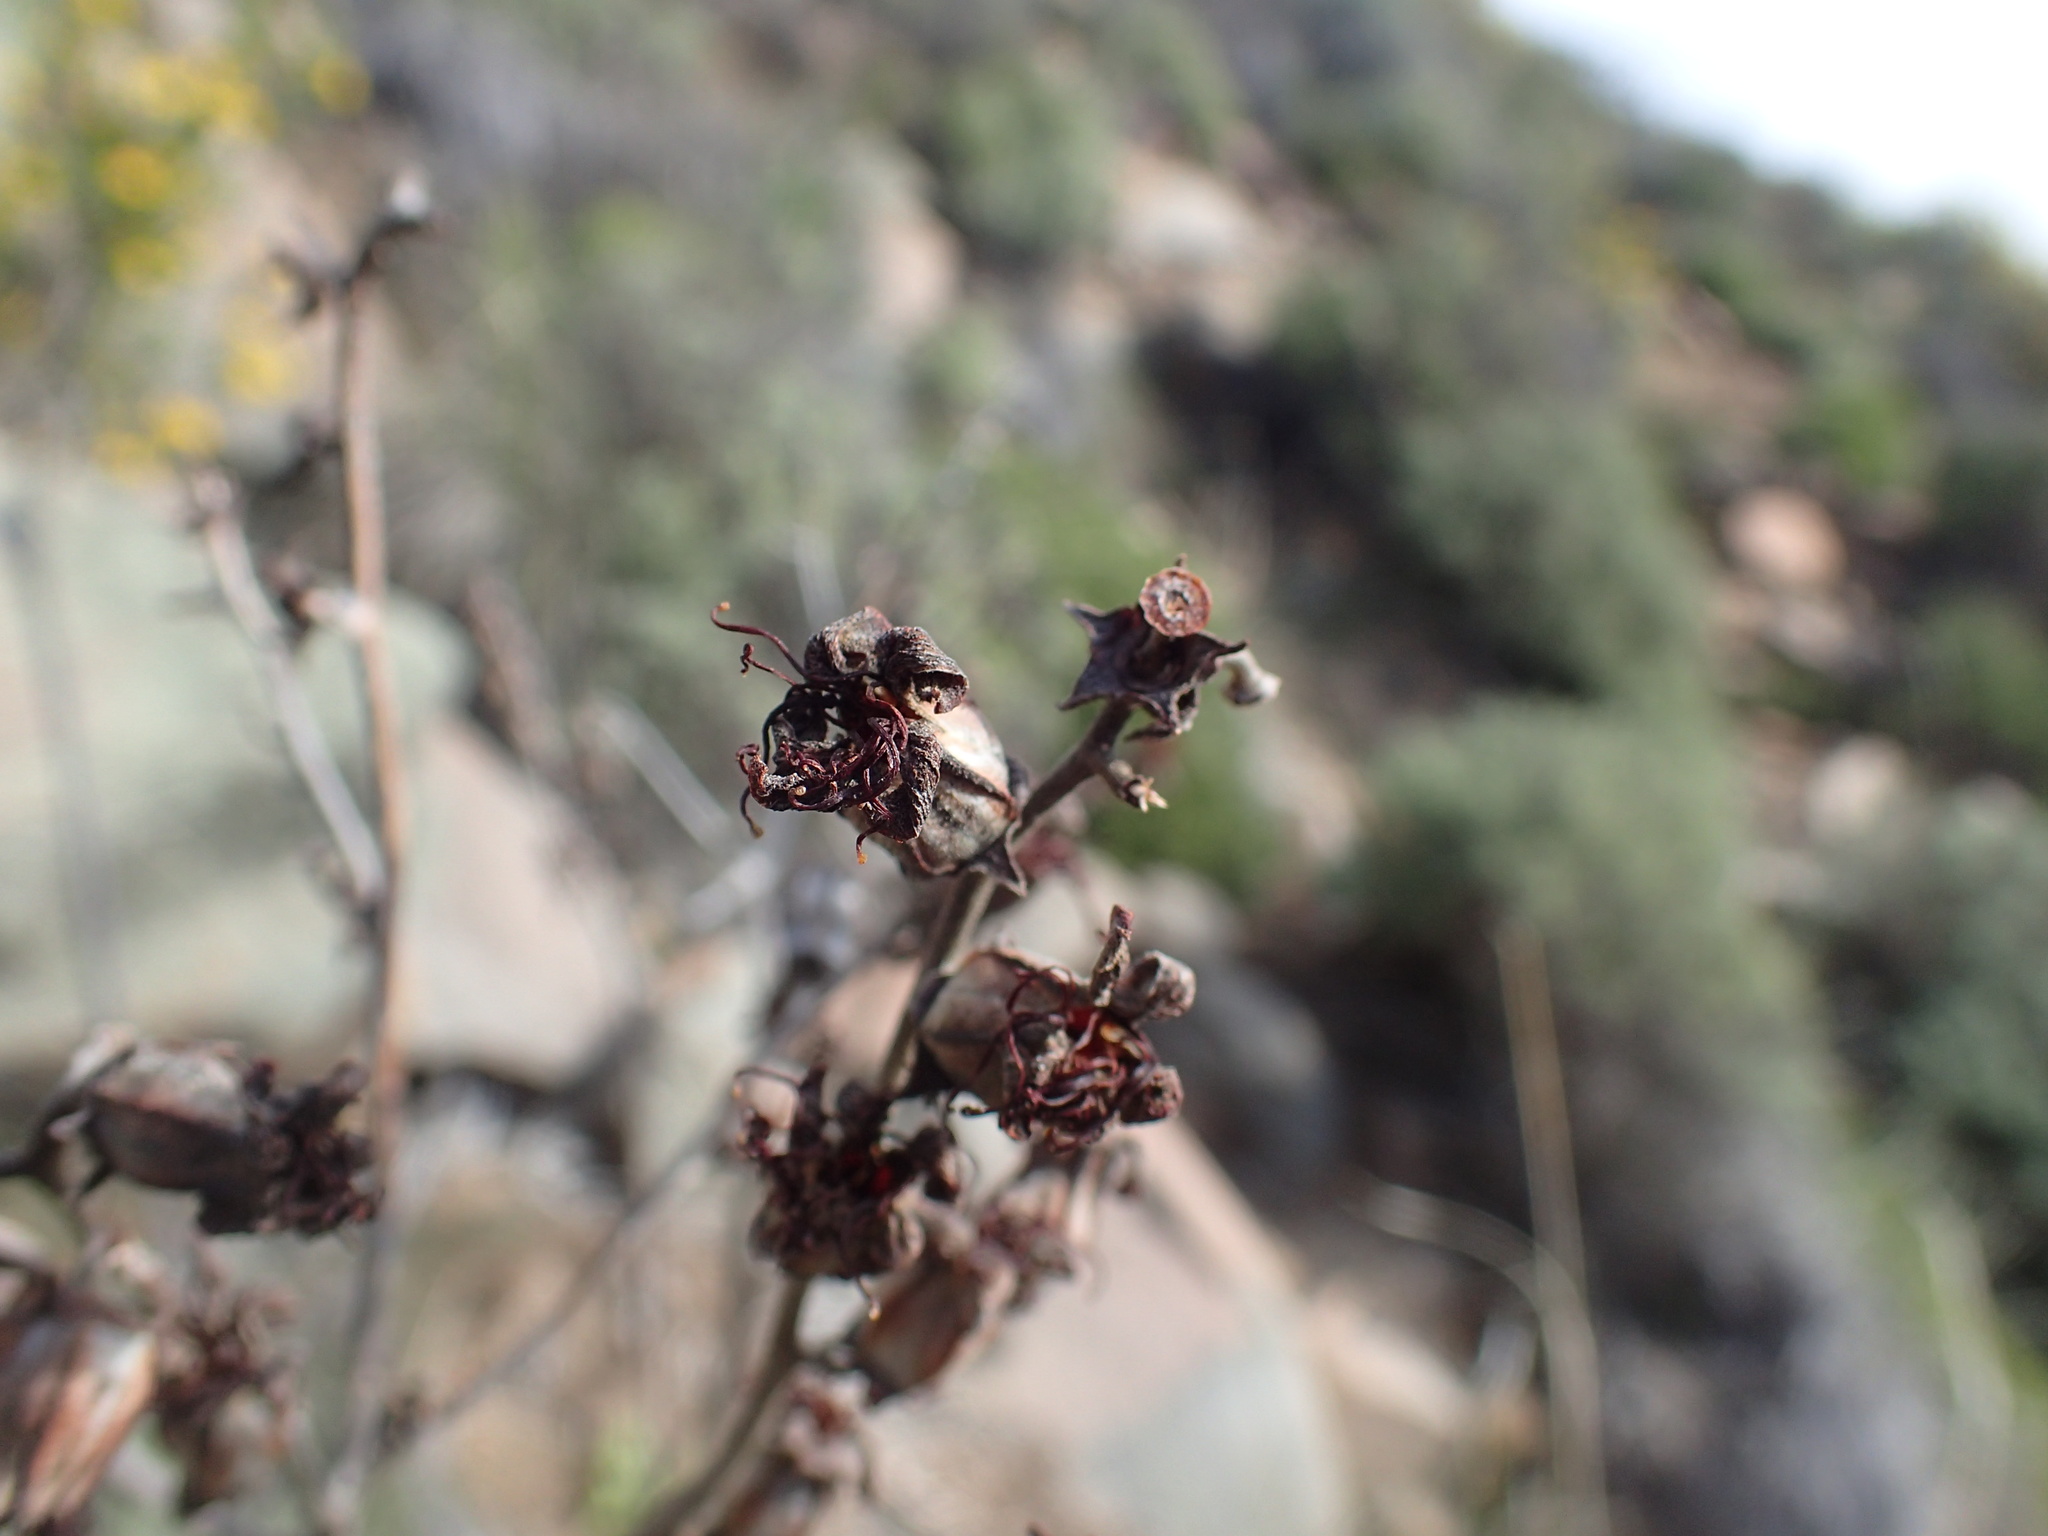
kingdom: Plantae
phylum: Tracheophyta
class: Magnoliopsida
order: Saxifragales
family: Crassulaceae
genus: Tylecodon
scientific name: Tylecodon wallichii
